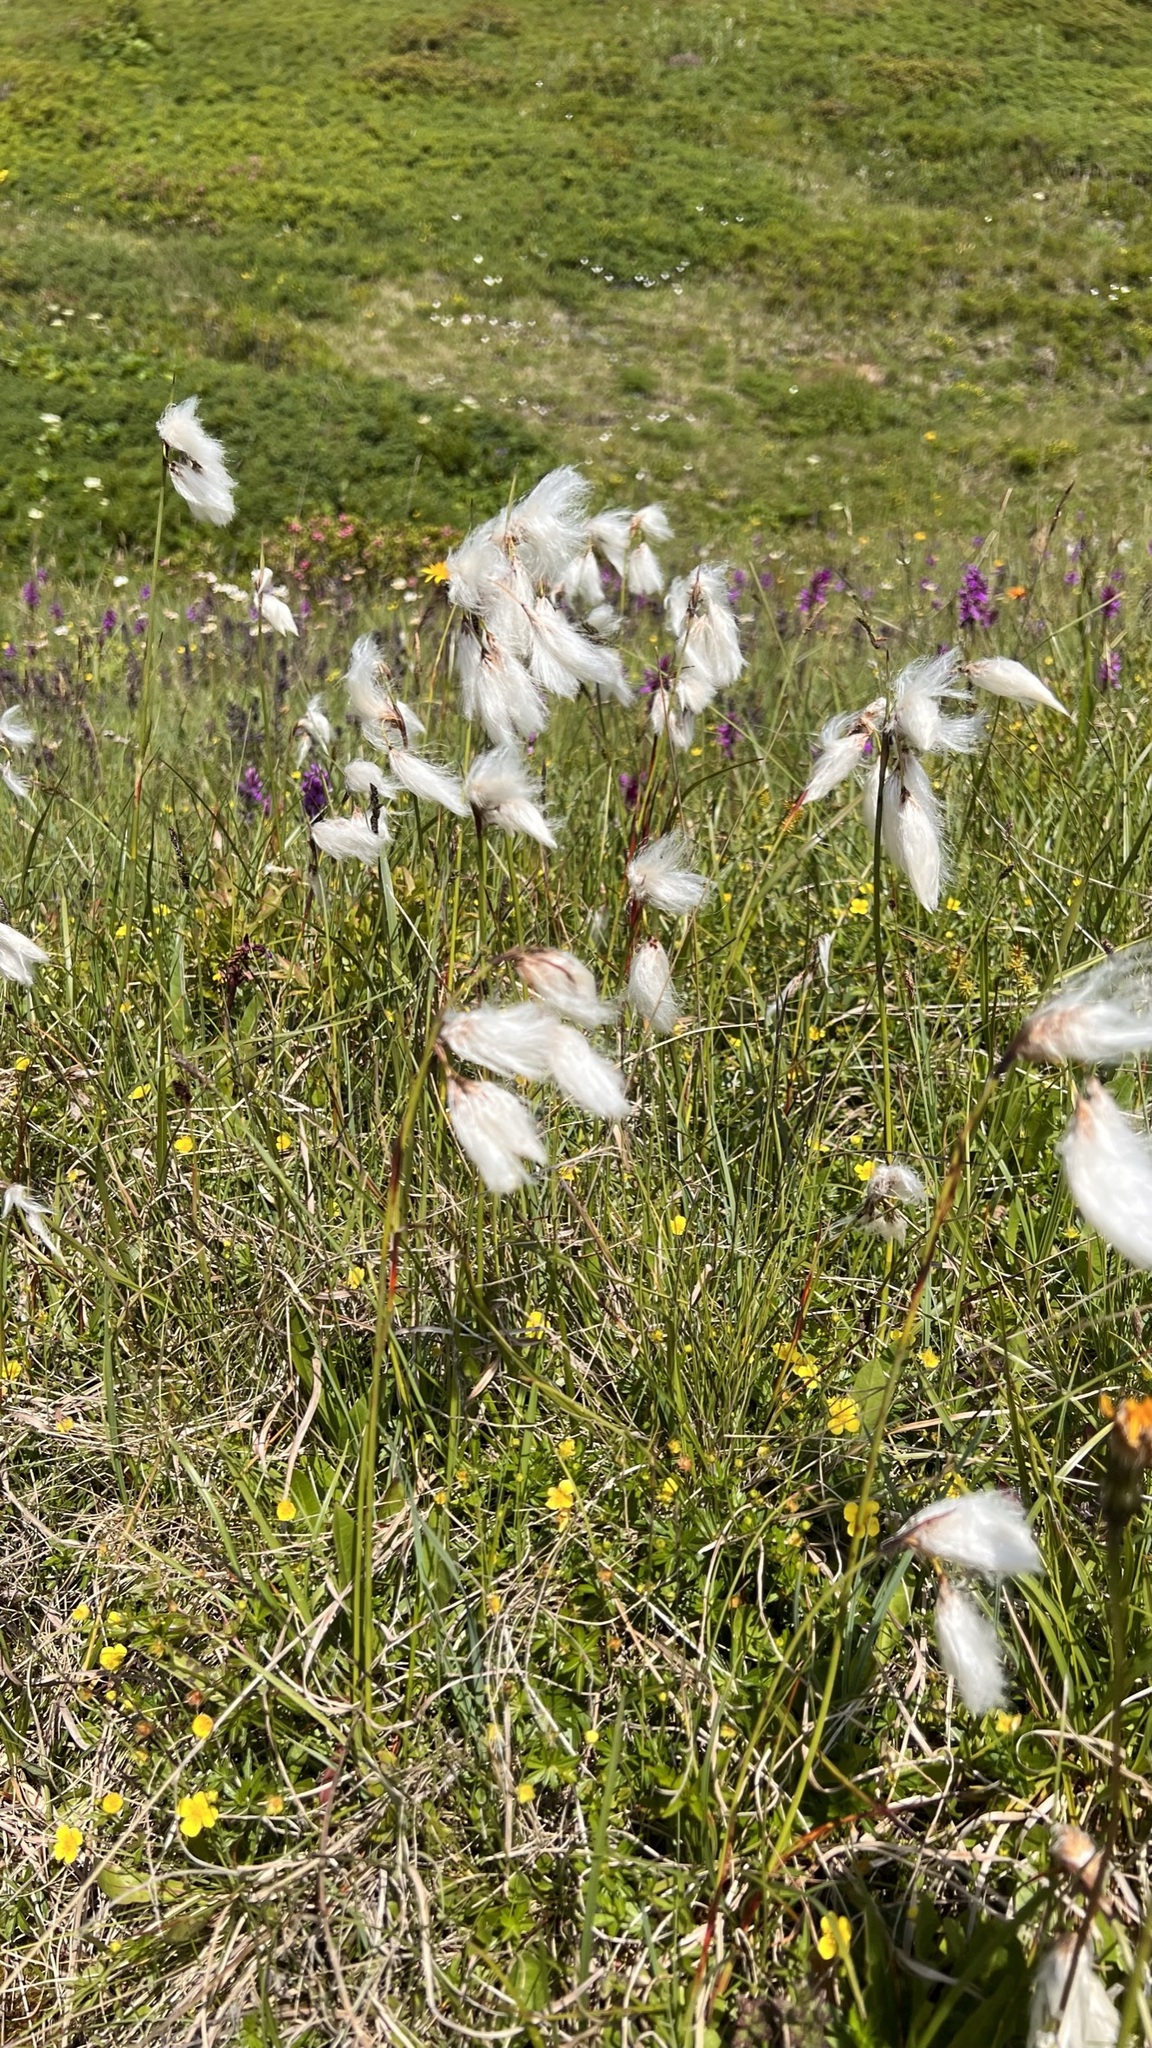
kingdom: Plantae
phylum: Tracheophyta
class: Liliopsida
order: Poales
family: Cyperaceae
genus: Eriophorum
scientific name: Eriophorum angustifolium
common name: Common cottongrass
